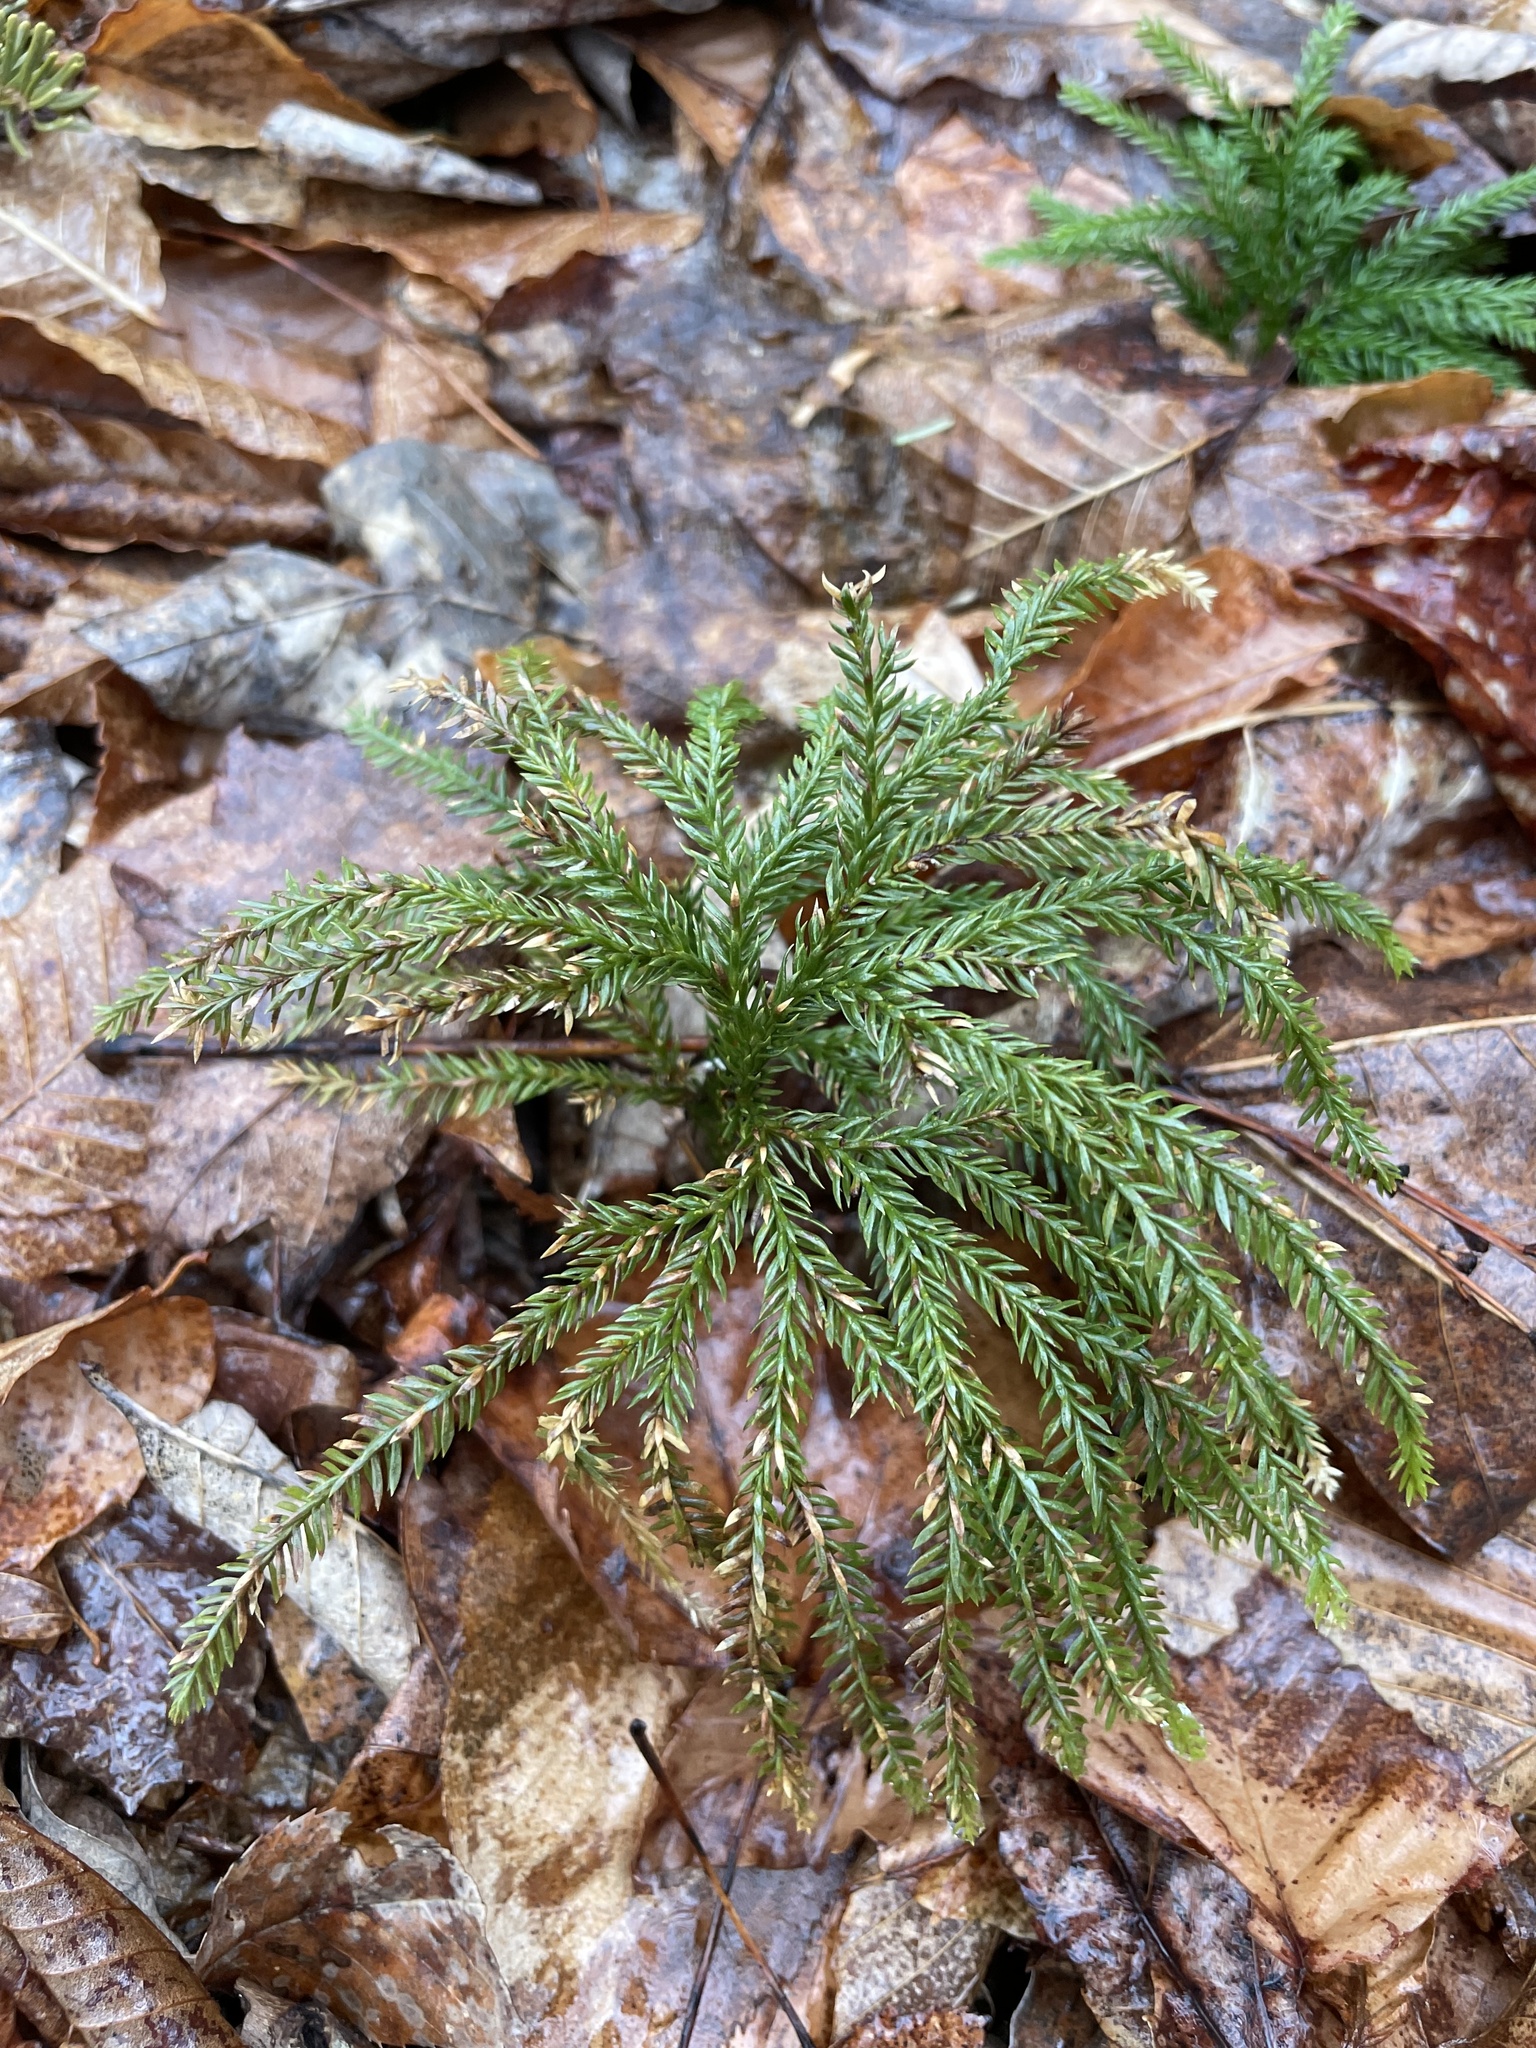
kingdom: Plantae
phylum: Tracheophyta
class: Lycopodiopsida
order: Lycopodiales
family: Lycopodiaceae
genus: Dendrolycopodium
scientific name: Dendrolycopodium dendroideum
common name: Northern tree-clubmoss
